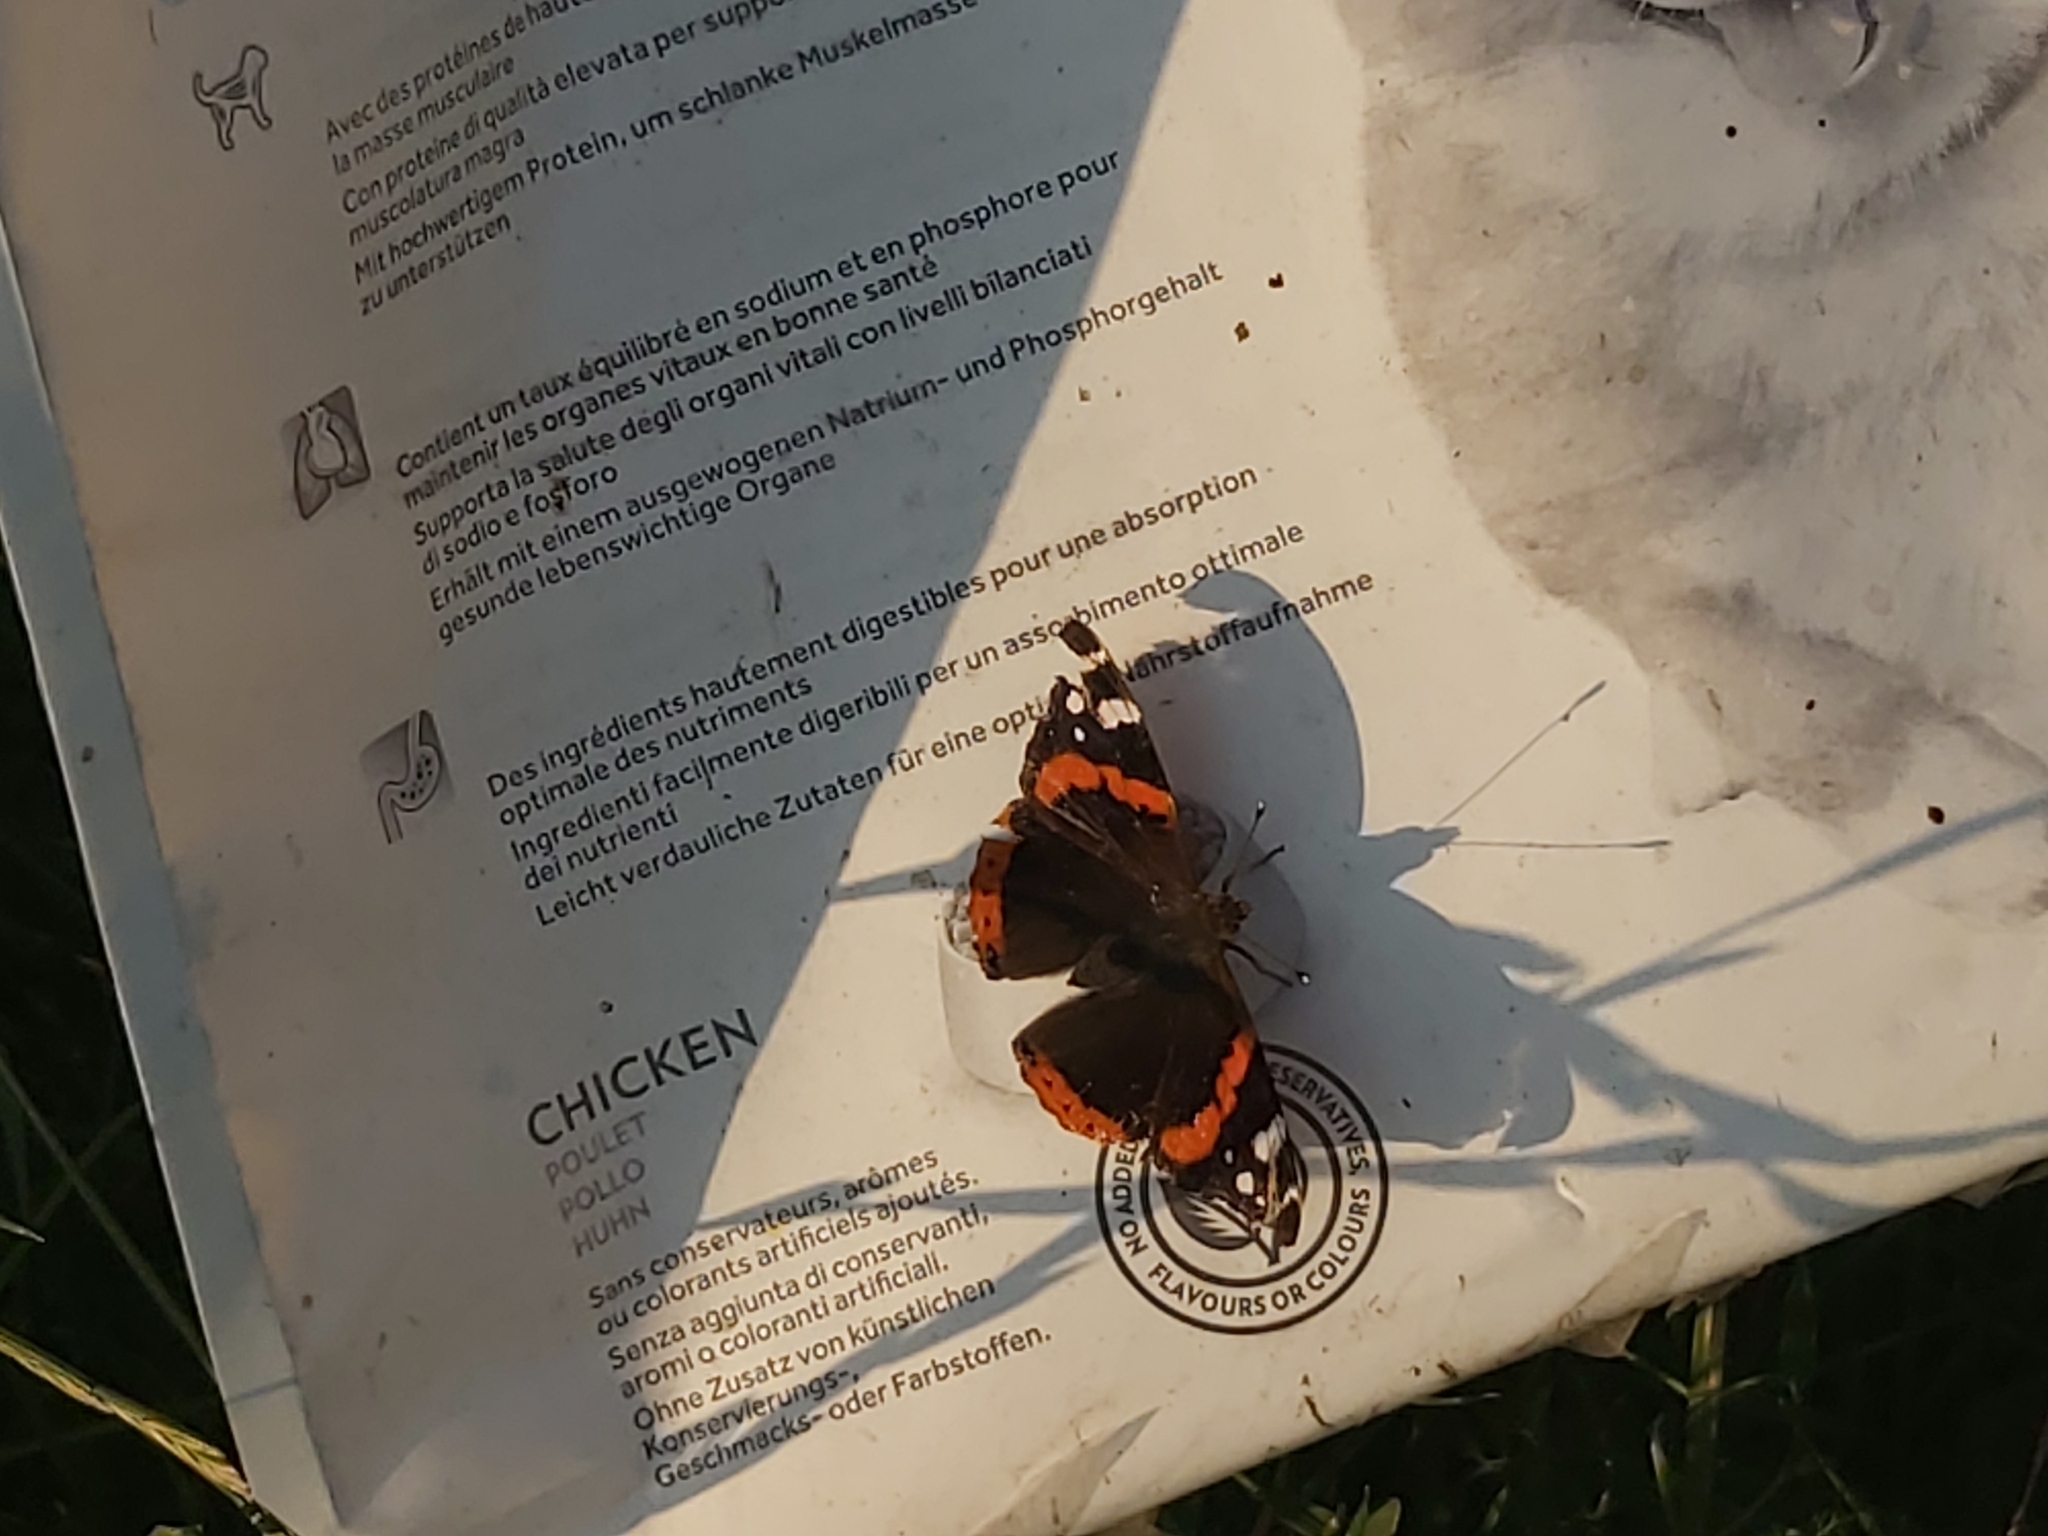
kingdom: Animalia
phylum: Arthropoda
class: Insecta
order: Lepidoptera
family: Nymphalidae
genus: Vanessa
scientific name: Vanessa atalanta
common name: Red admiral
